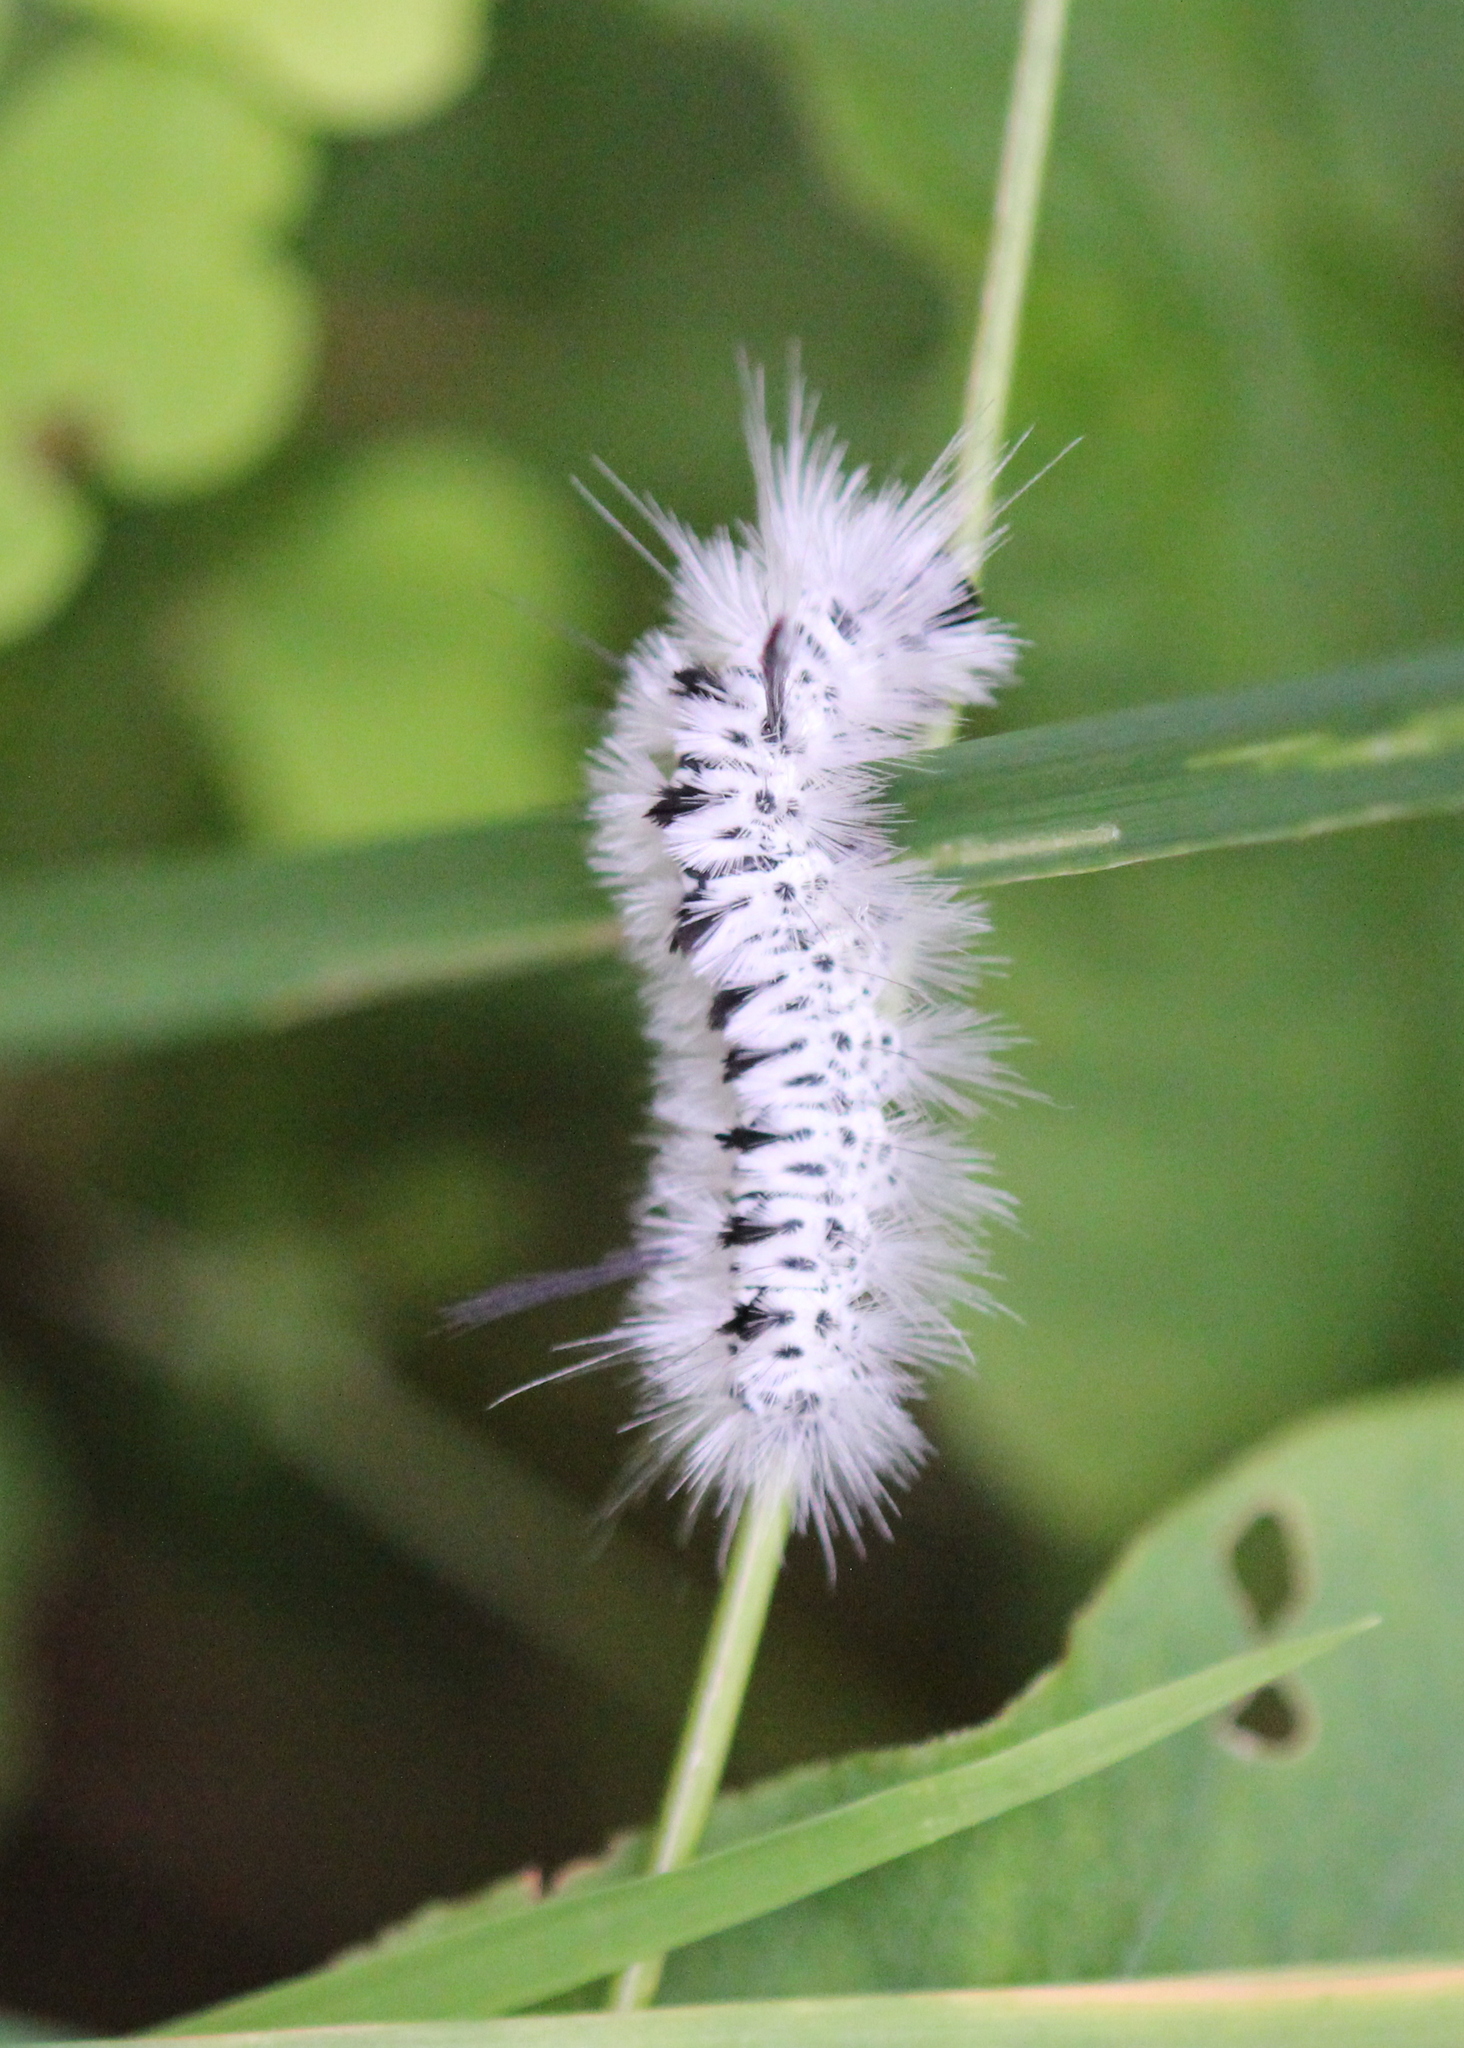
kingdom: Animalia
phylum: Arthropoda
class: Insecta
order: Lepidoptera
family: Erebidae
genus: Lophocampa
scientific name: Lophocampa caryae
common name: Hickory tussock moth
